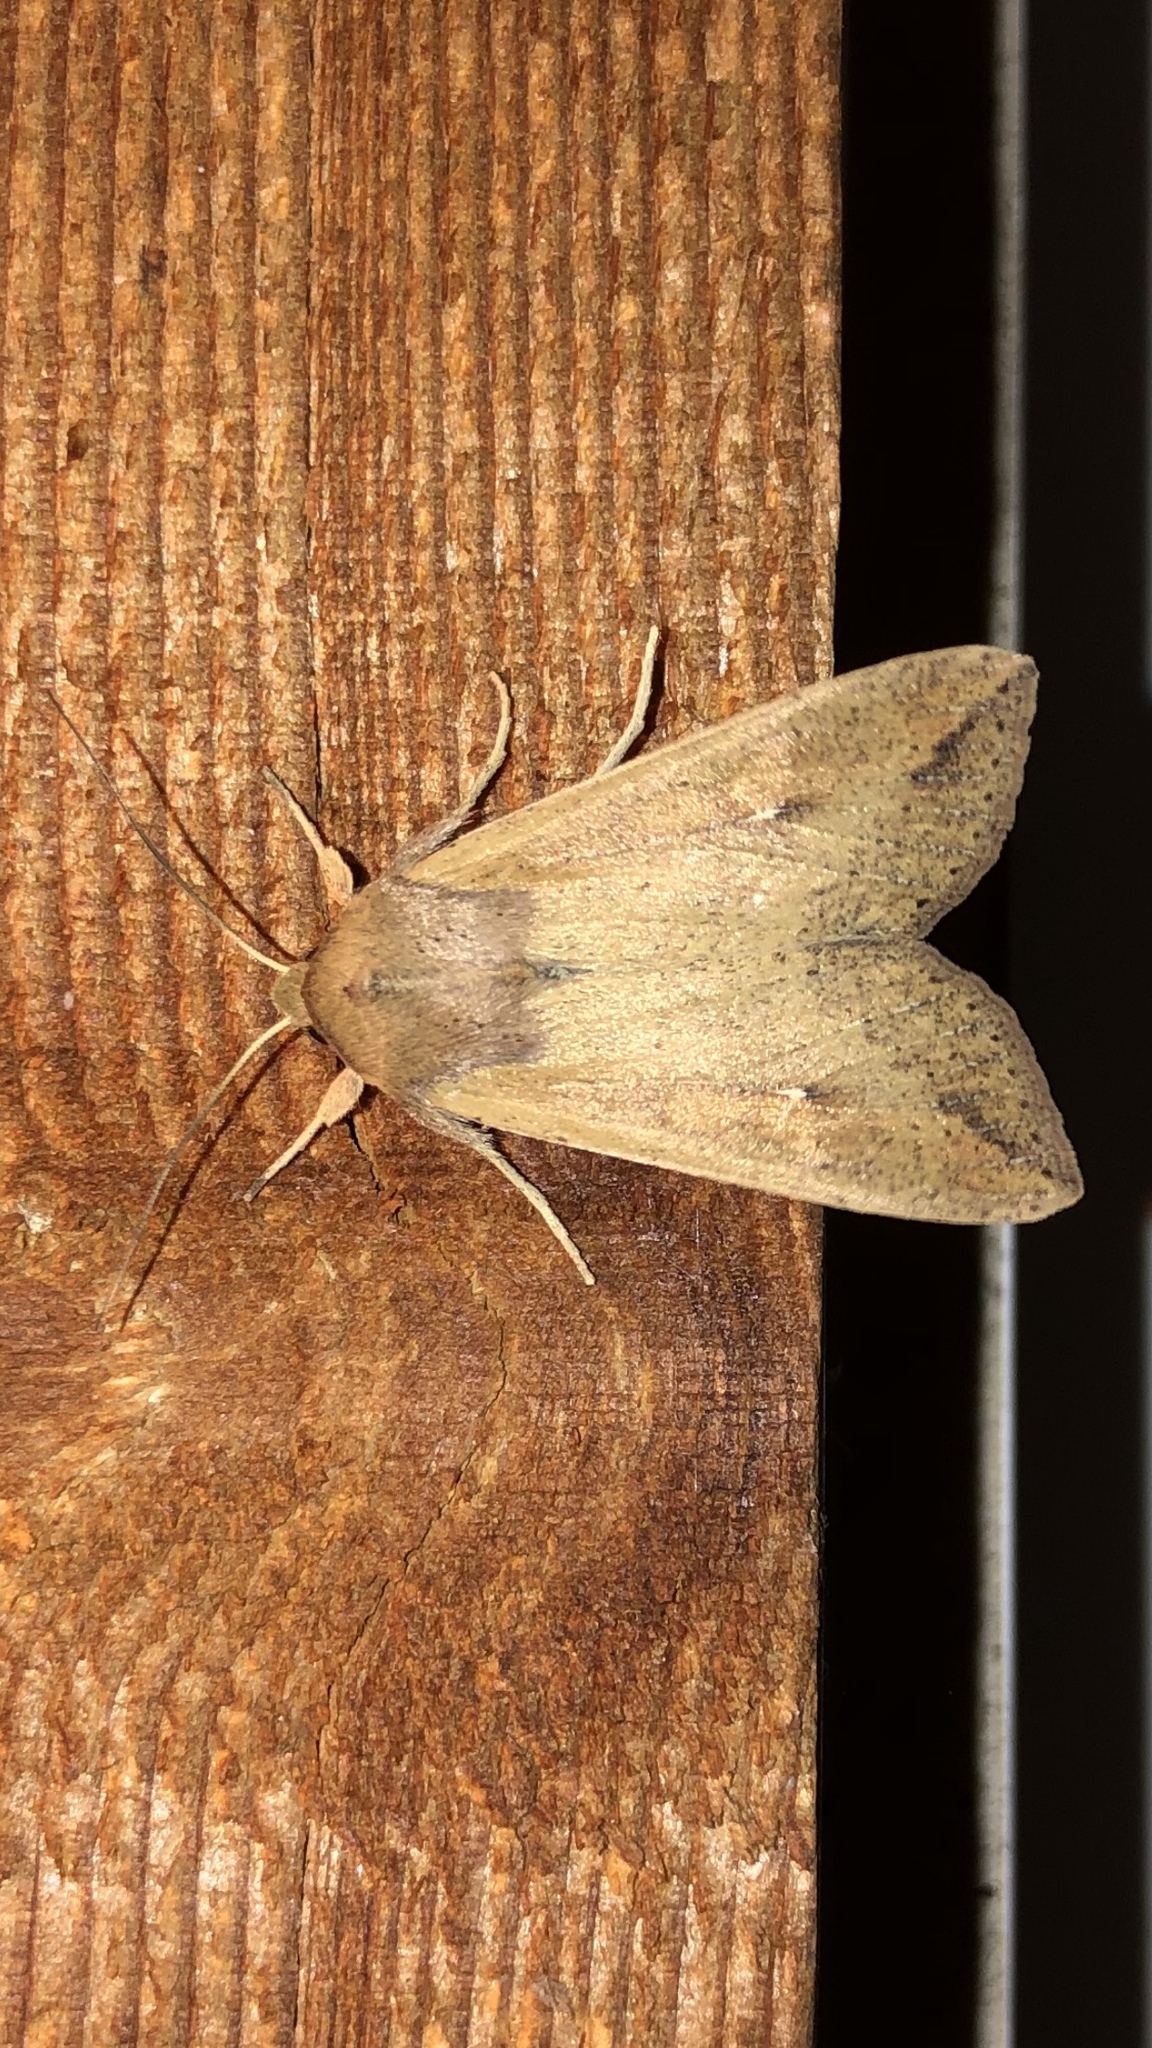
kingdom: Animalia
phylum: Arthropoda
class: Insecta
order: Lepidoptera
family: Noctuidae
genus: Mythimna
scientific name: Mythimna unipuncta
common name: White-speck
